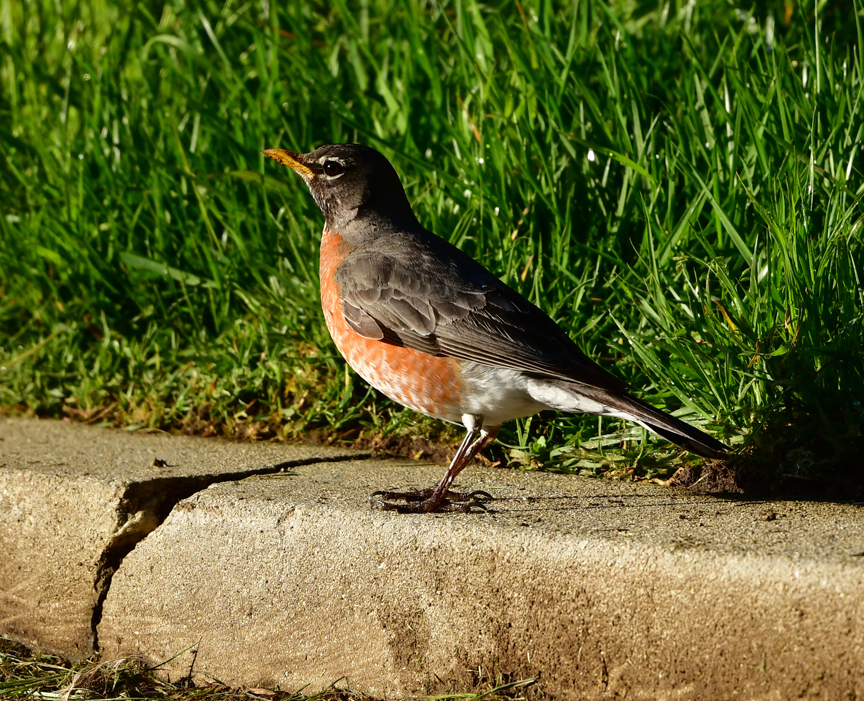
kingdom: Animalia
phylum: Chordata
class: Aves
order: Passeriformes
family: Turdidae
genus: Turdus
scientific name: Turdus migratorius
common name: American robin
